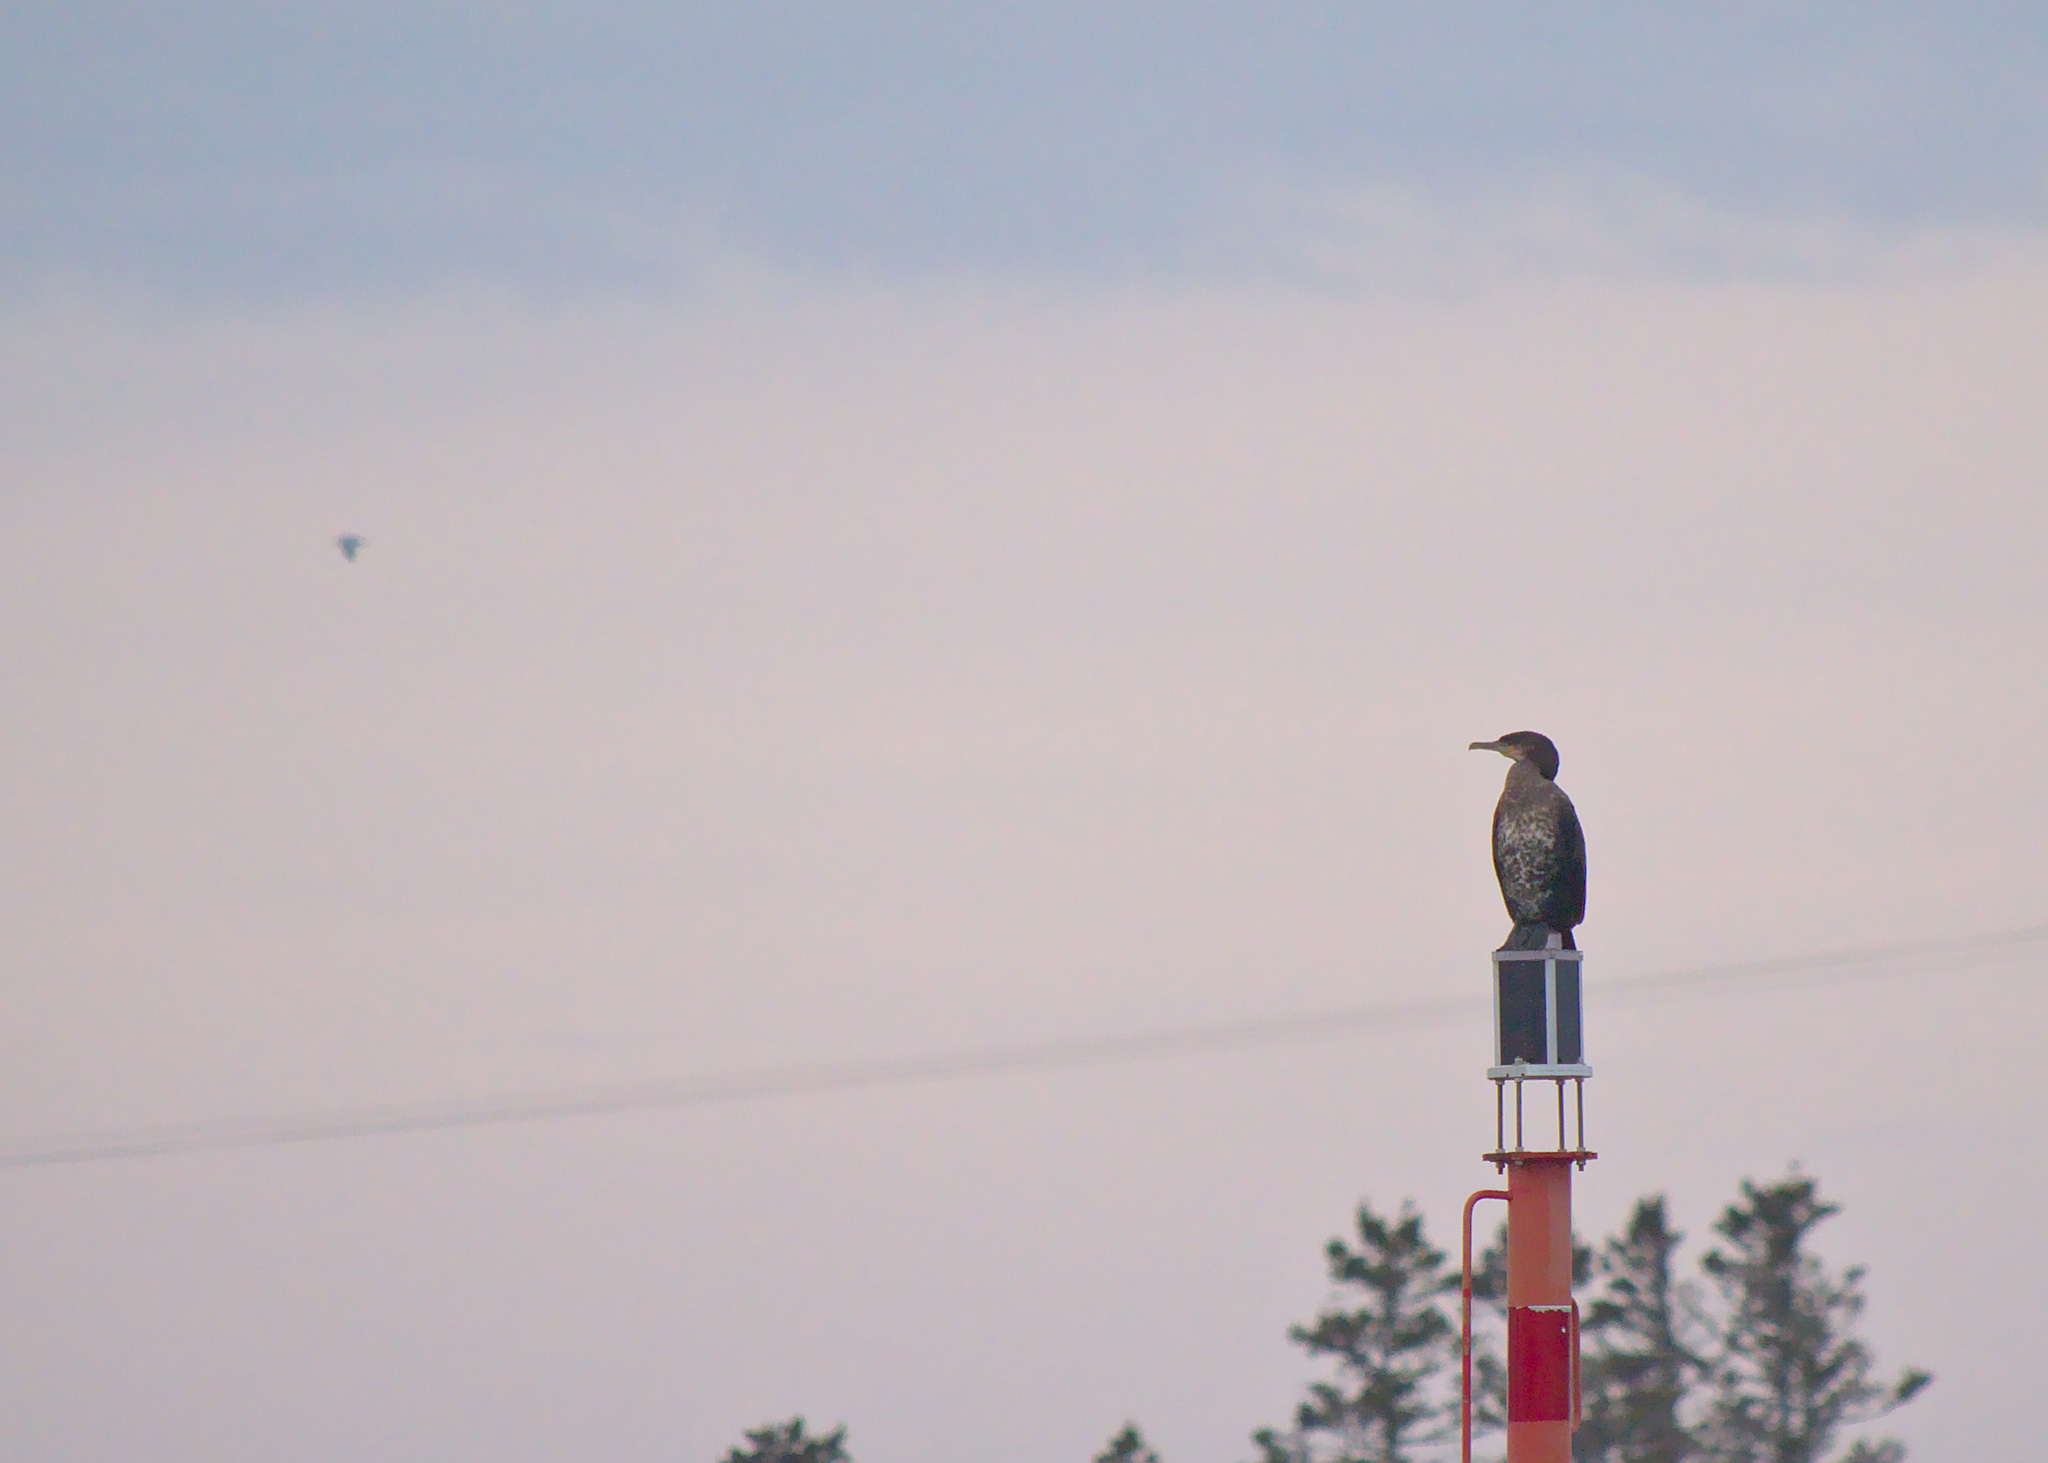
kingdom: Animalia
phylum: Chordata
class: Aves
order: Suliformes
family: Phalacrocoracidae
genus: Phalacrocorax
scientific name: Phalacrocorax carbo
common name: Great cormorant
